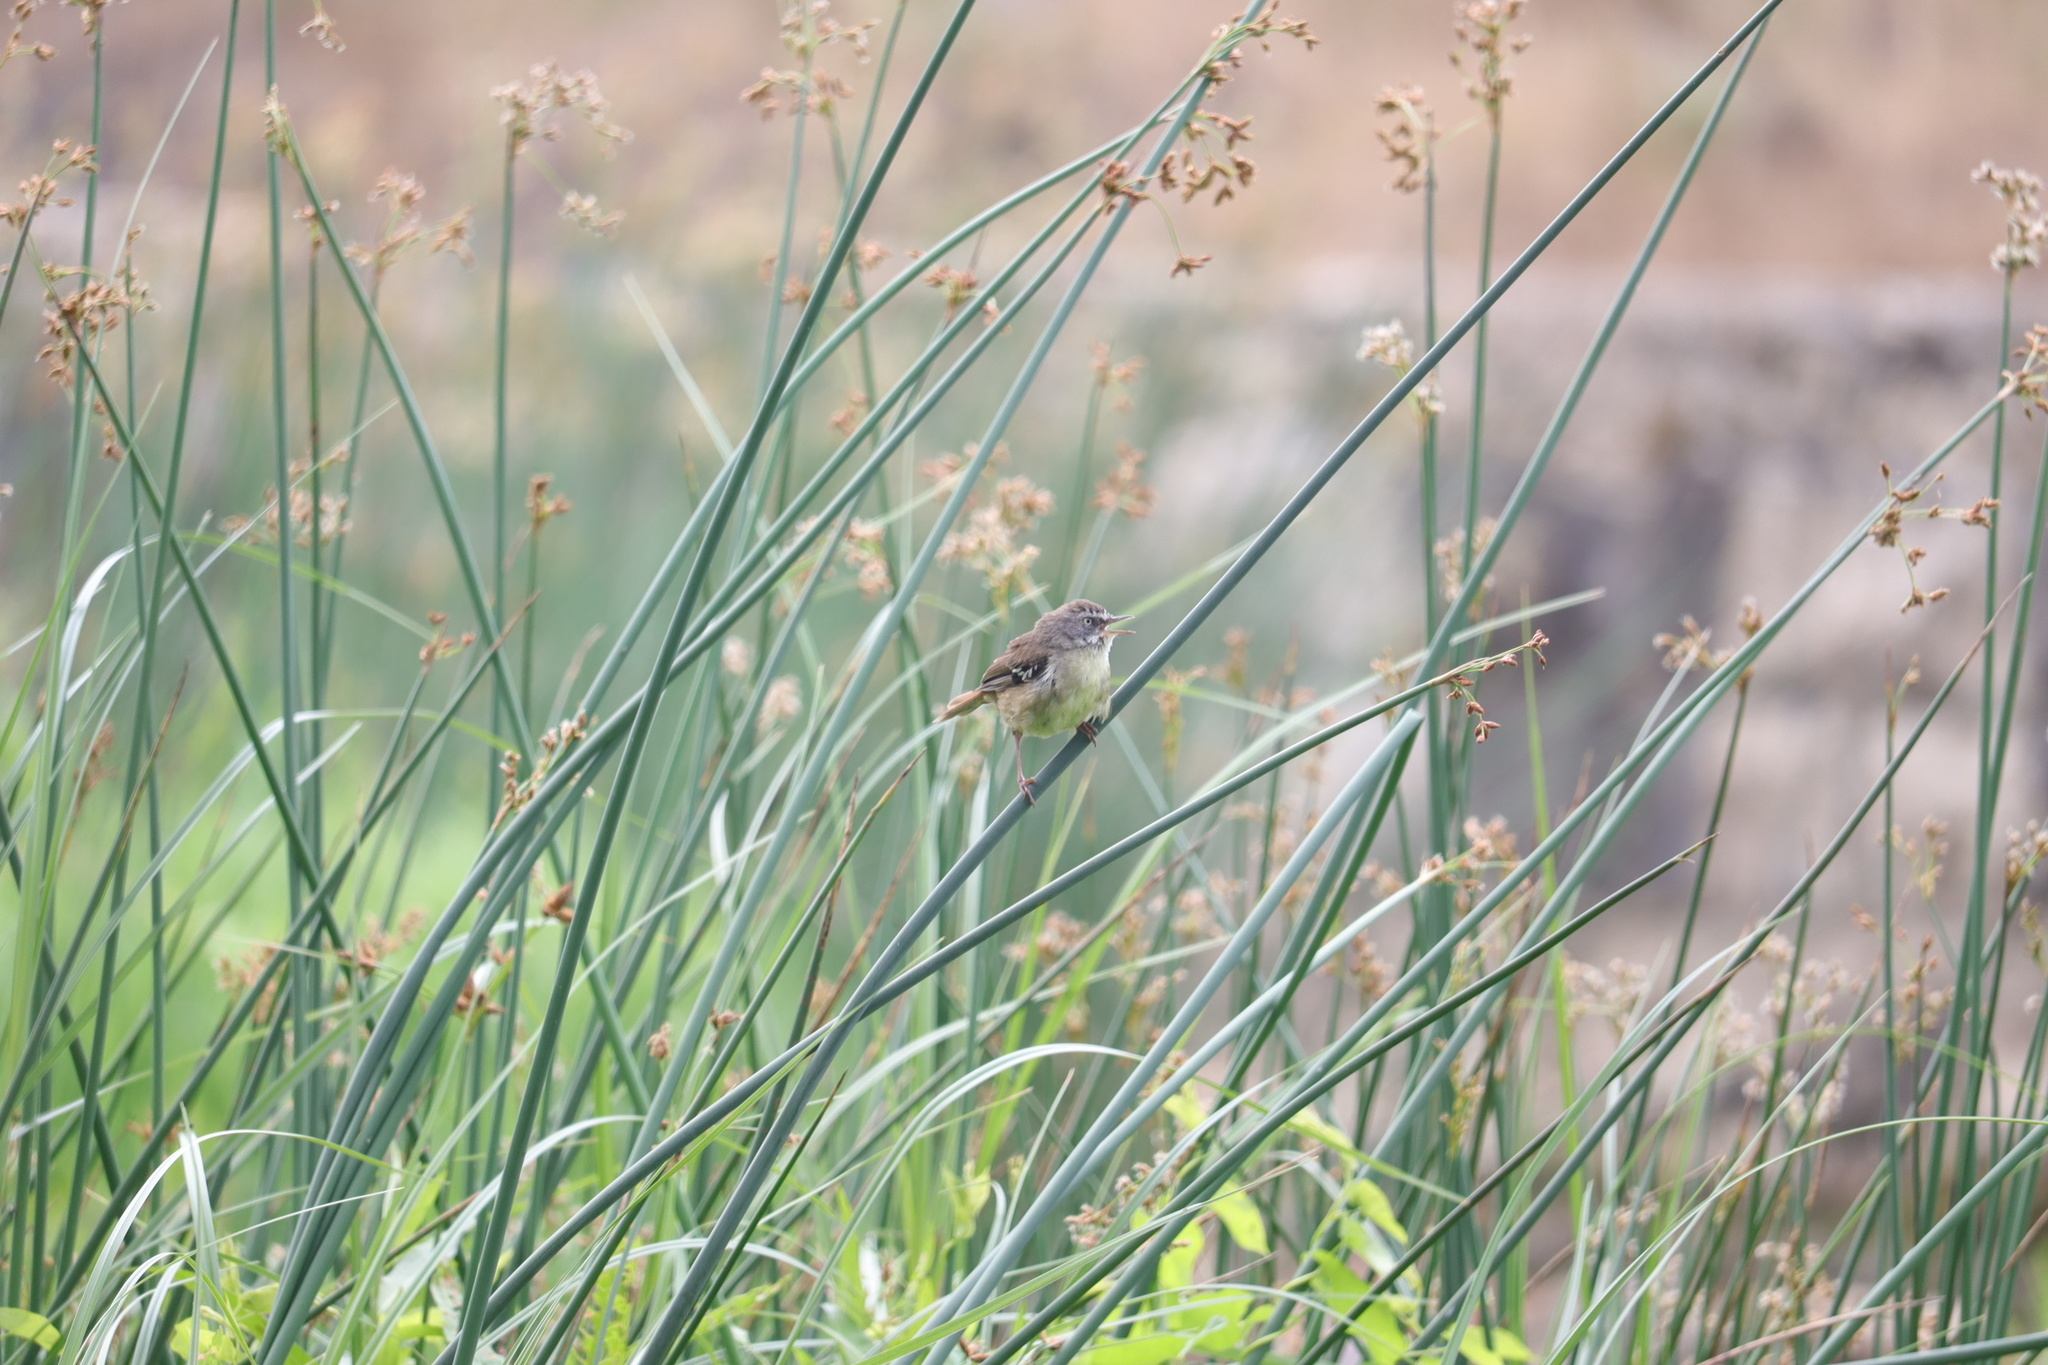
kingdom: Animalia
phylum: Chordata
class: Aves
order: Passeriformes
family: Acanthizidae
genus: Sericornis
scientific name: Sericornis frontalis
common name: White-browed scrubwren
